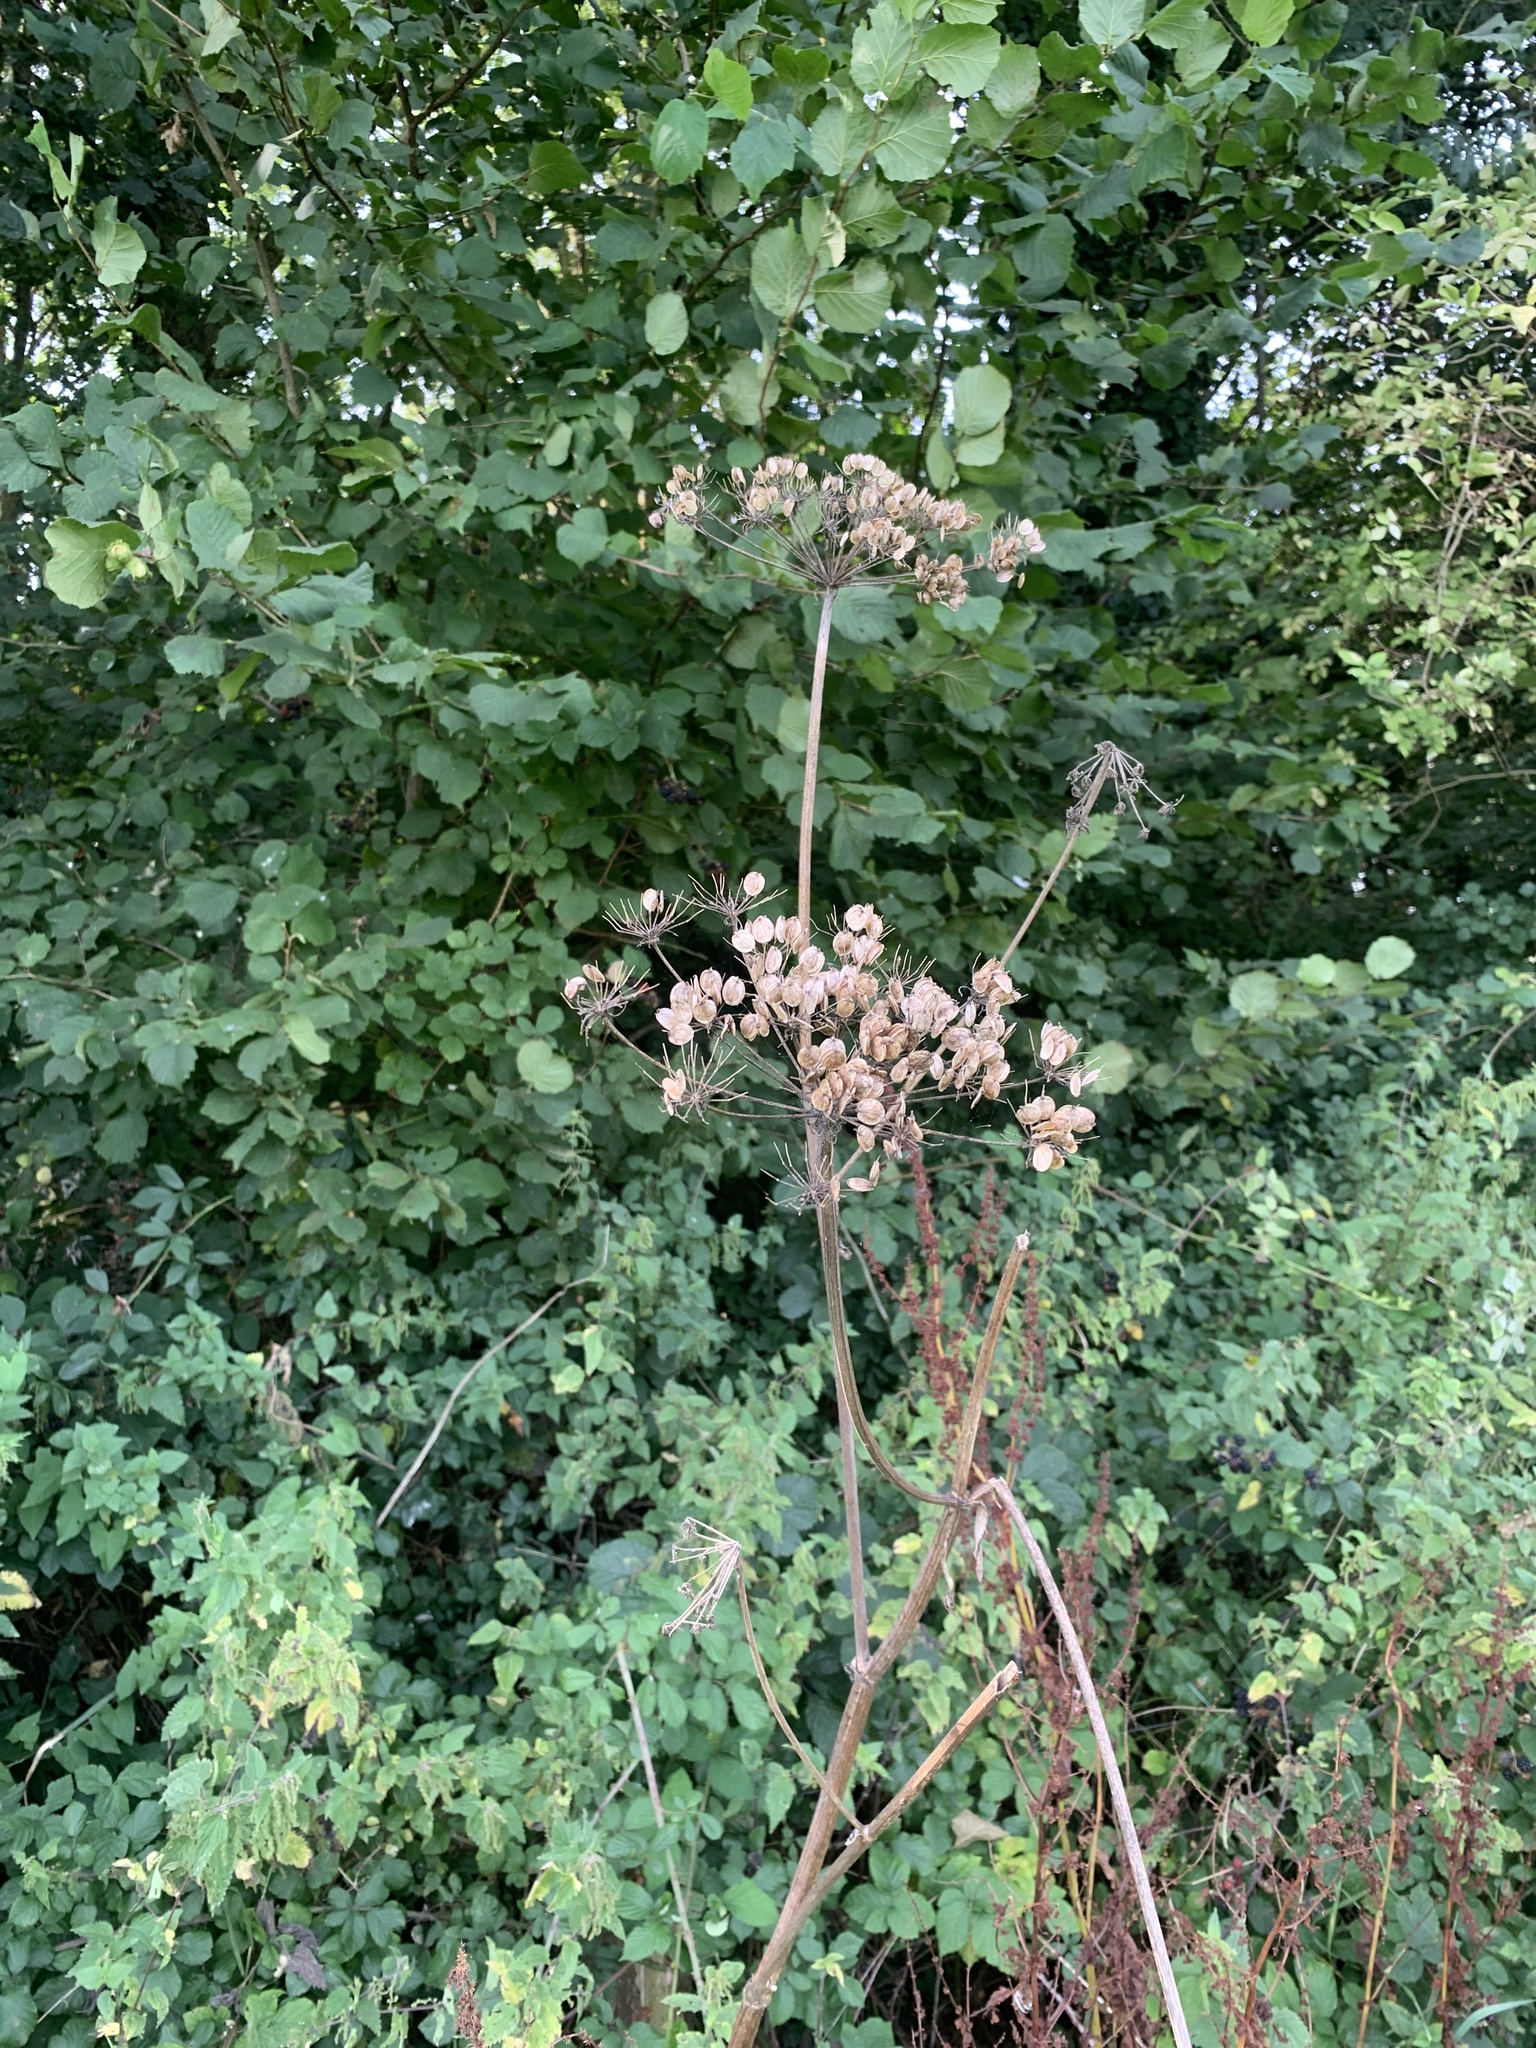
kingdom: Plantae
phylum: Tracheophyta
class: Magnoliopsida
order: Apiales
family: Apiaceae
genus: Heracleum
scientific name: Heracleum sphondylium
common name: Hogweed
